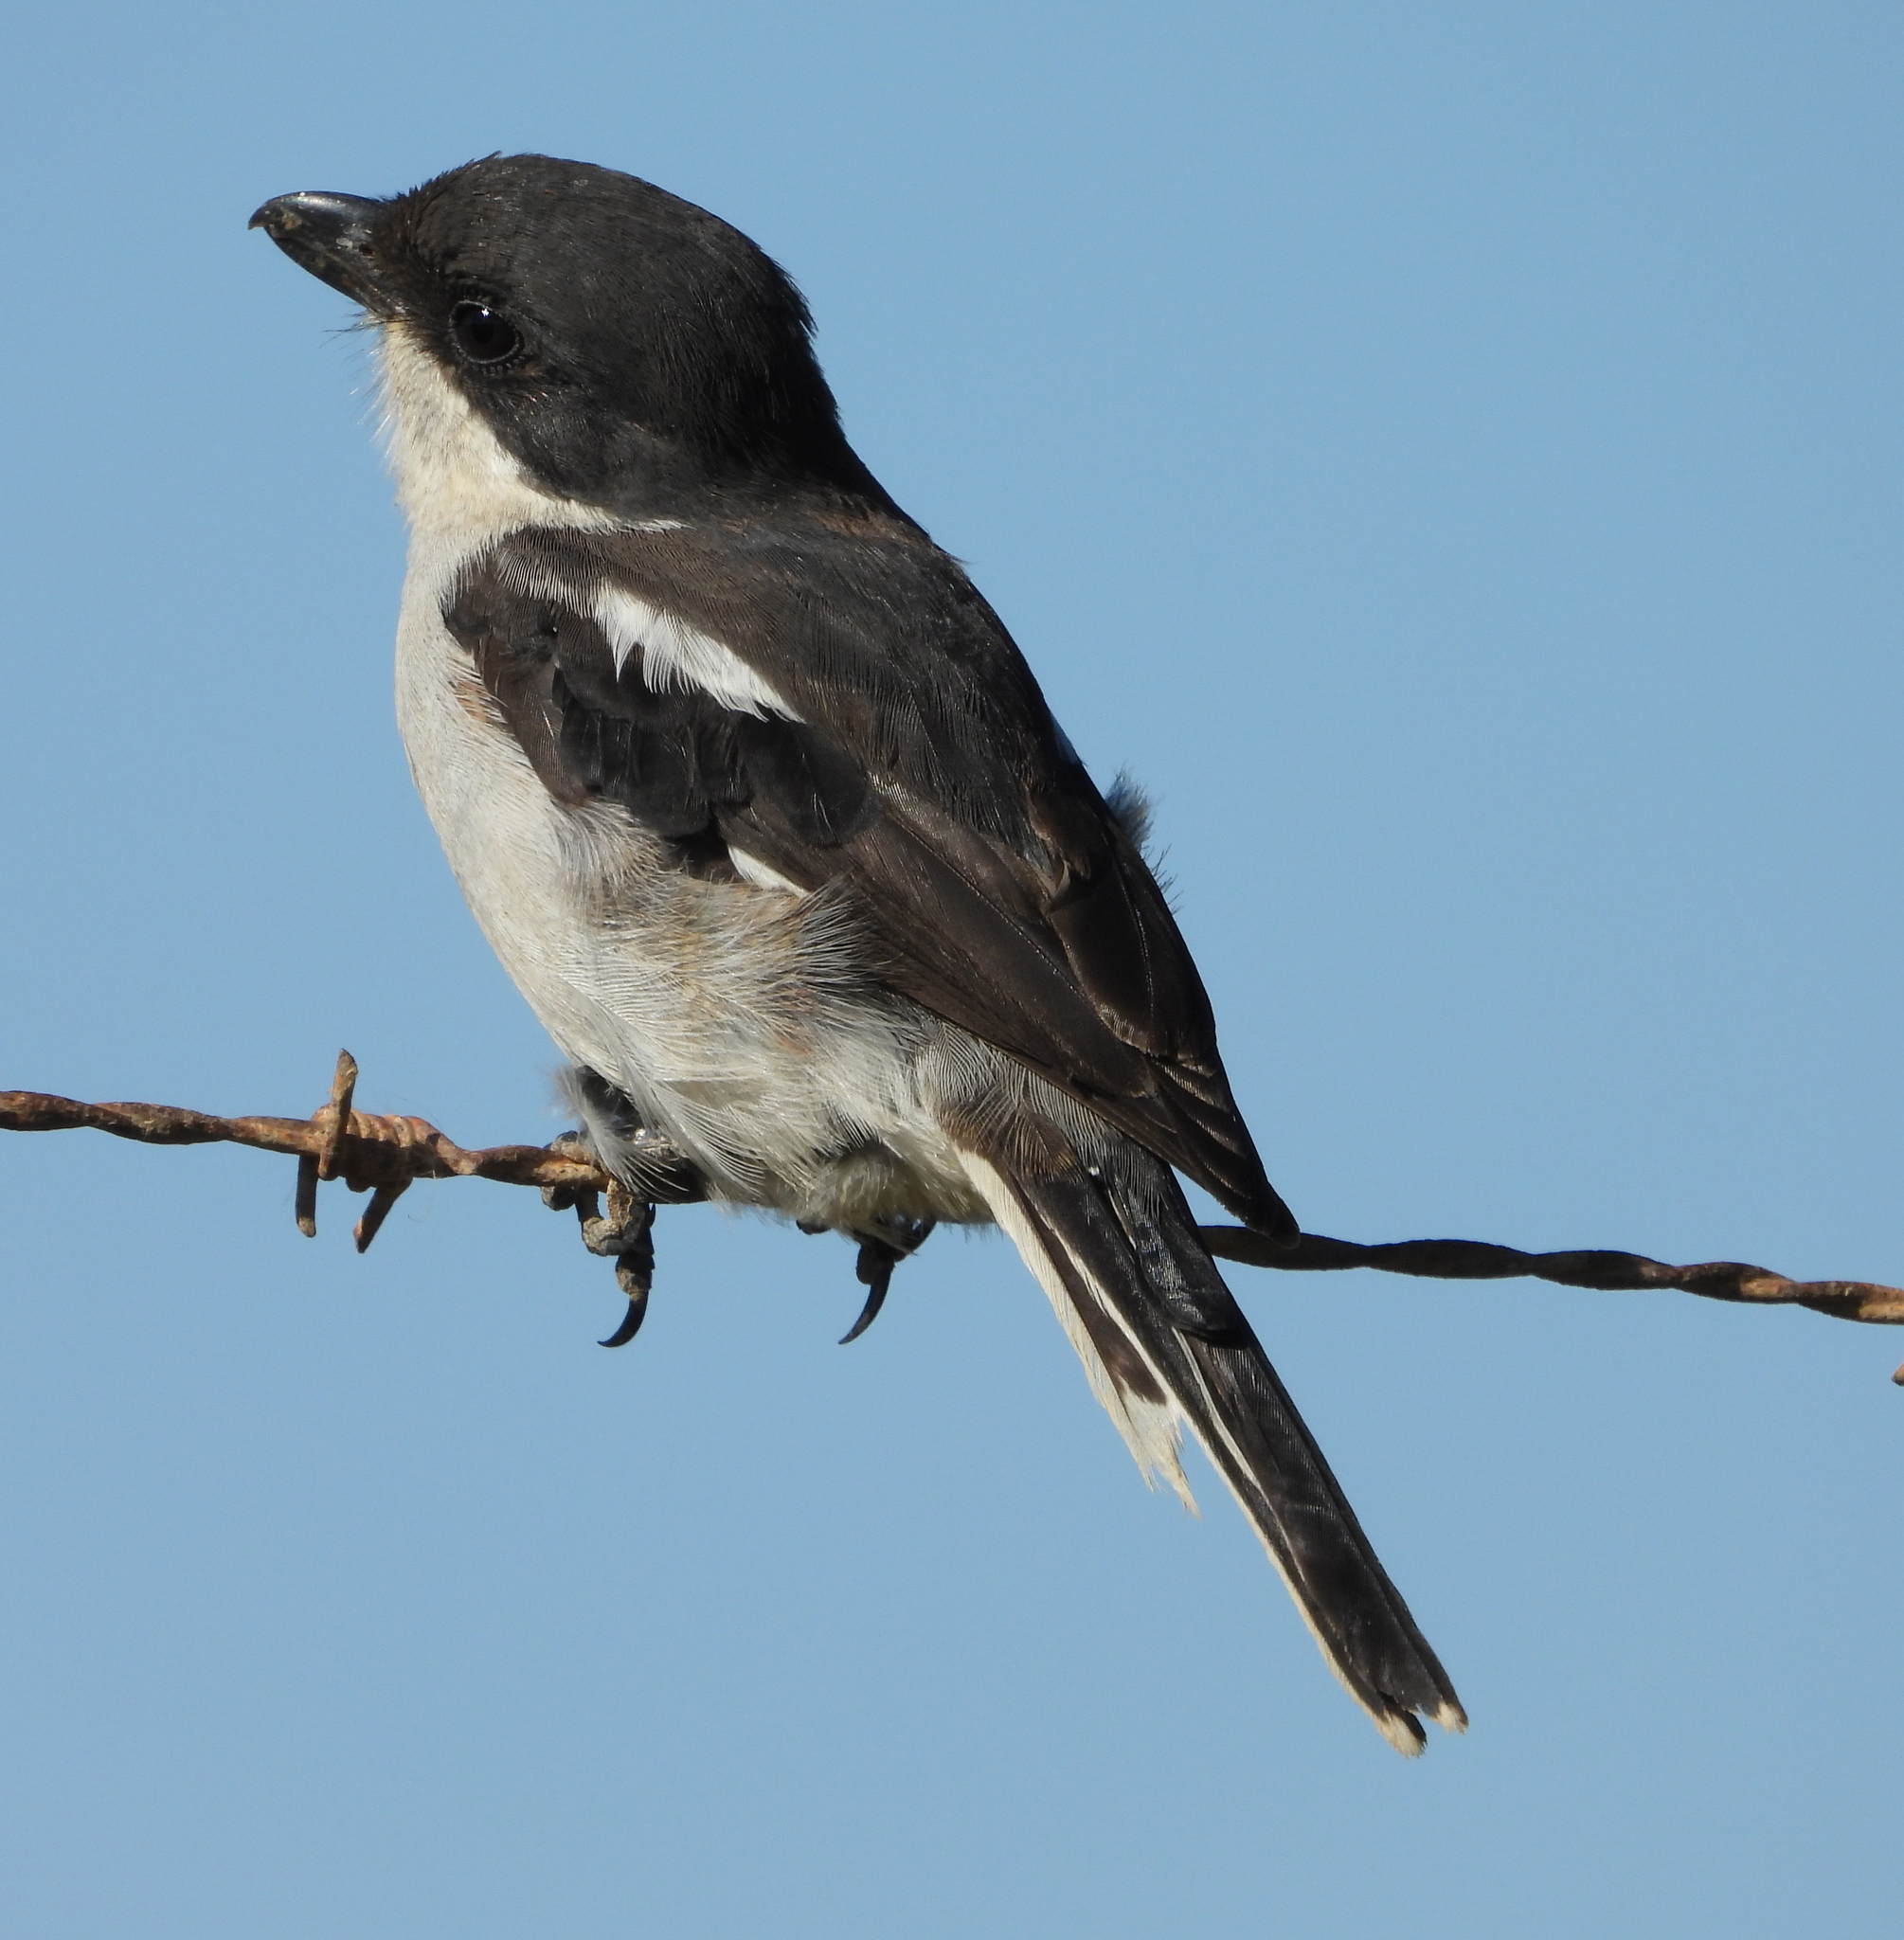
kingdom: Animalia
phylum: Chordata
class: Aves
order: Passeriformes
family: Laniidae
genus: Lanius
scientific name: Lanius collaris
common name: Southern fiscal
